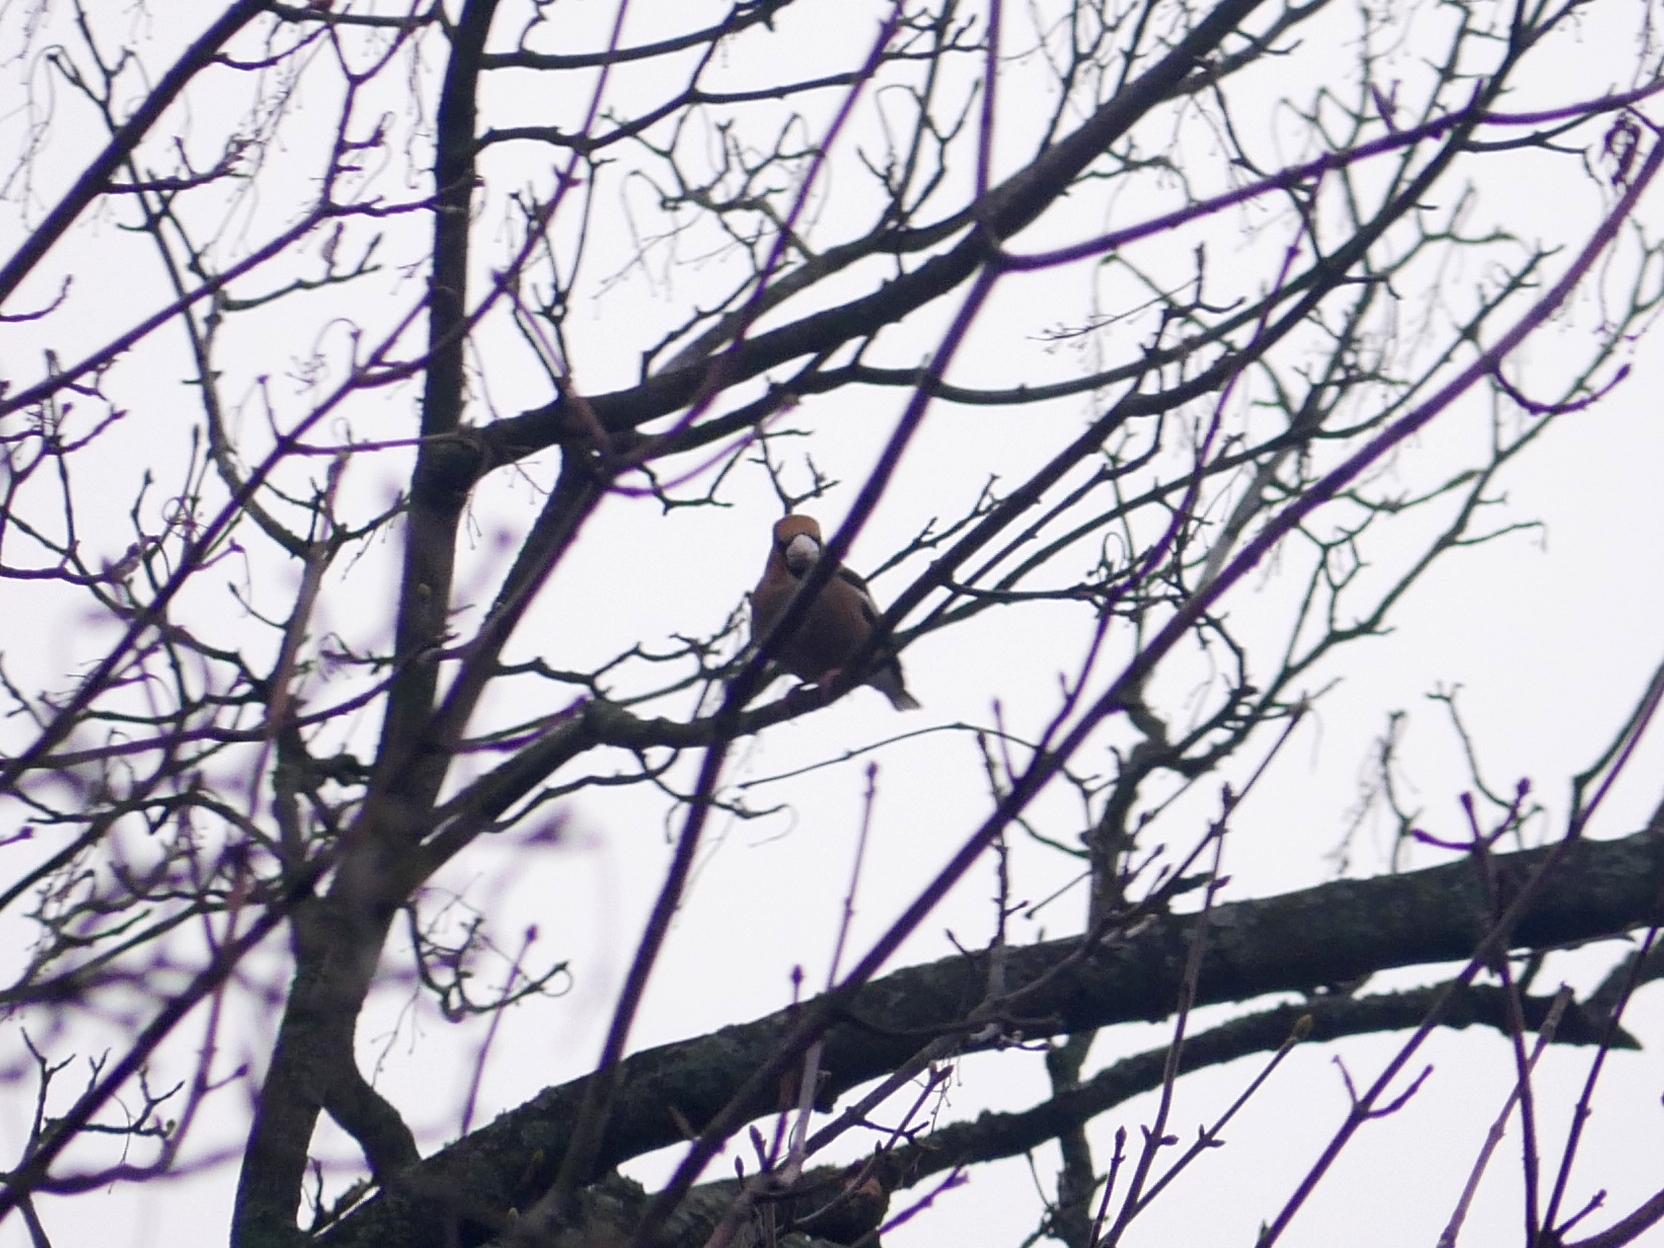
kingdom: Animalia
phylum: Chordata
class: Aves
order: Passeriformes
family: Fringillidae
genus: Coccothraustes
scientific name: Coccothraustes coccothraustes
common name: Hawfinch
